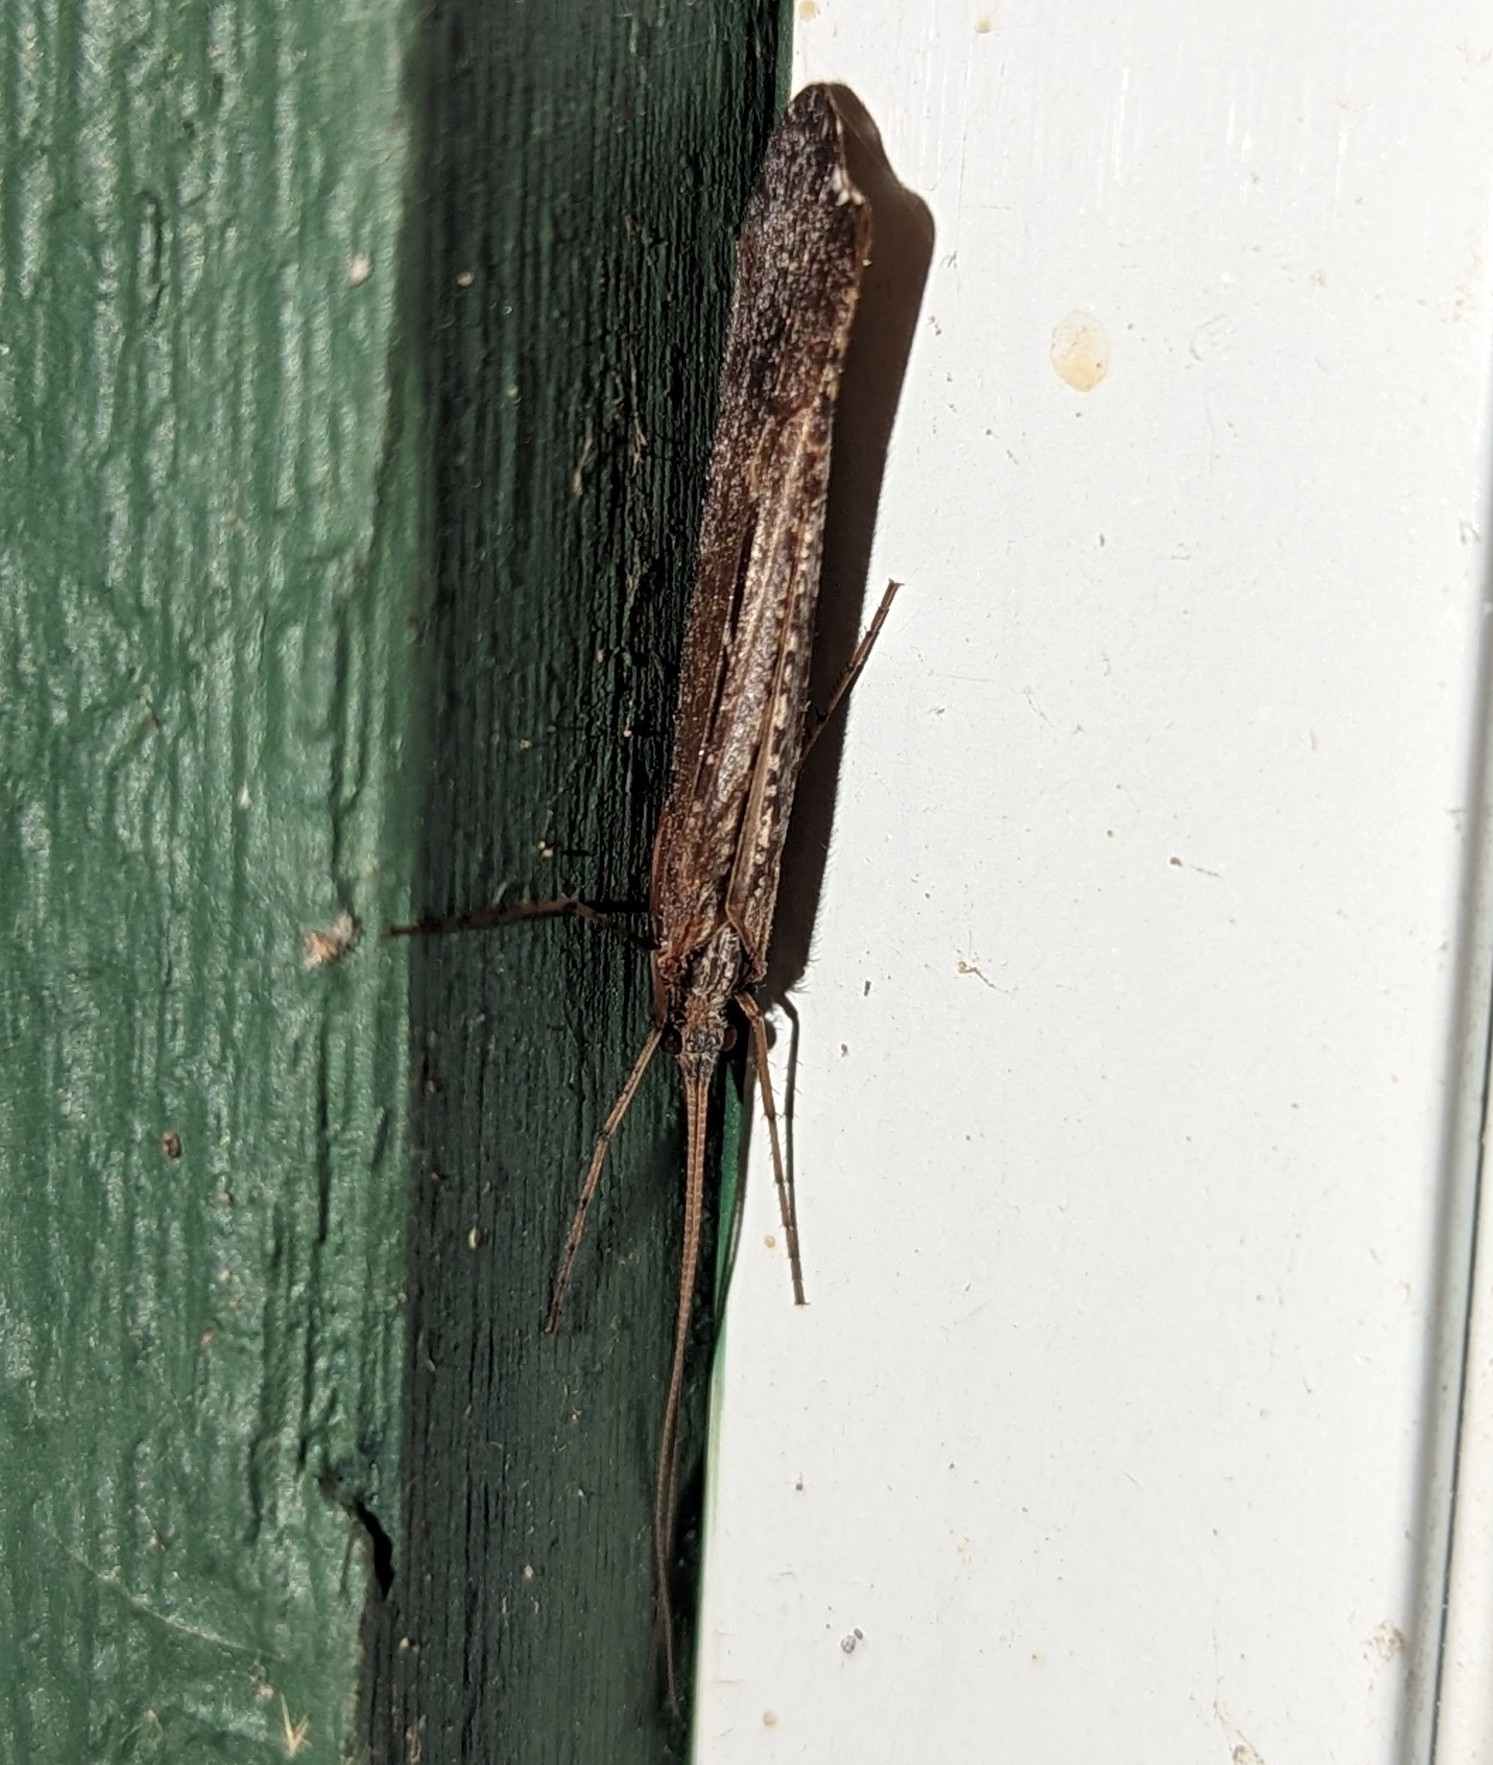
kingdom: Animalia
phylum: Arthropoda
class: Insecta
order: Trichoptera
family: Limnephilidae
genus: Glyphopsyche
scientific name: Glyphopsyche irrorata
